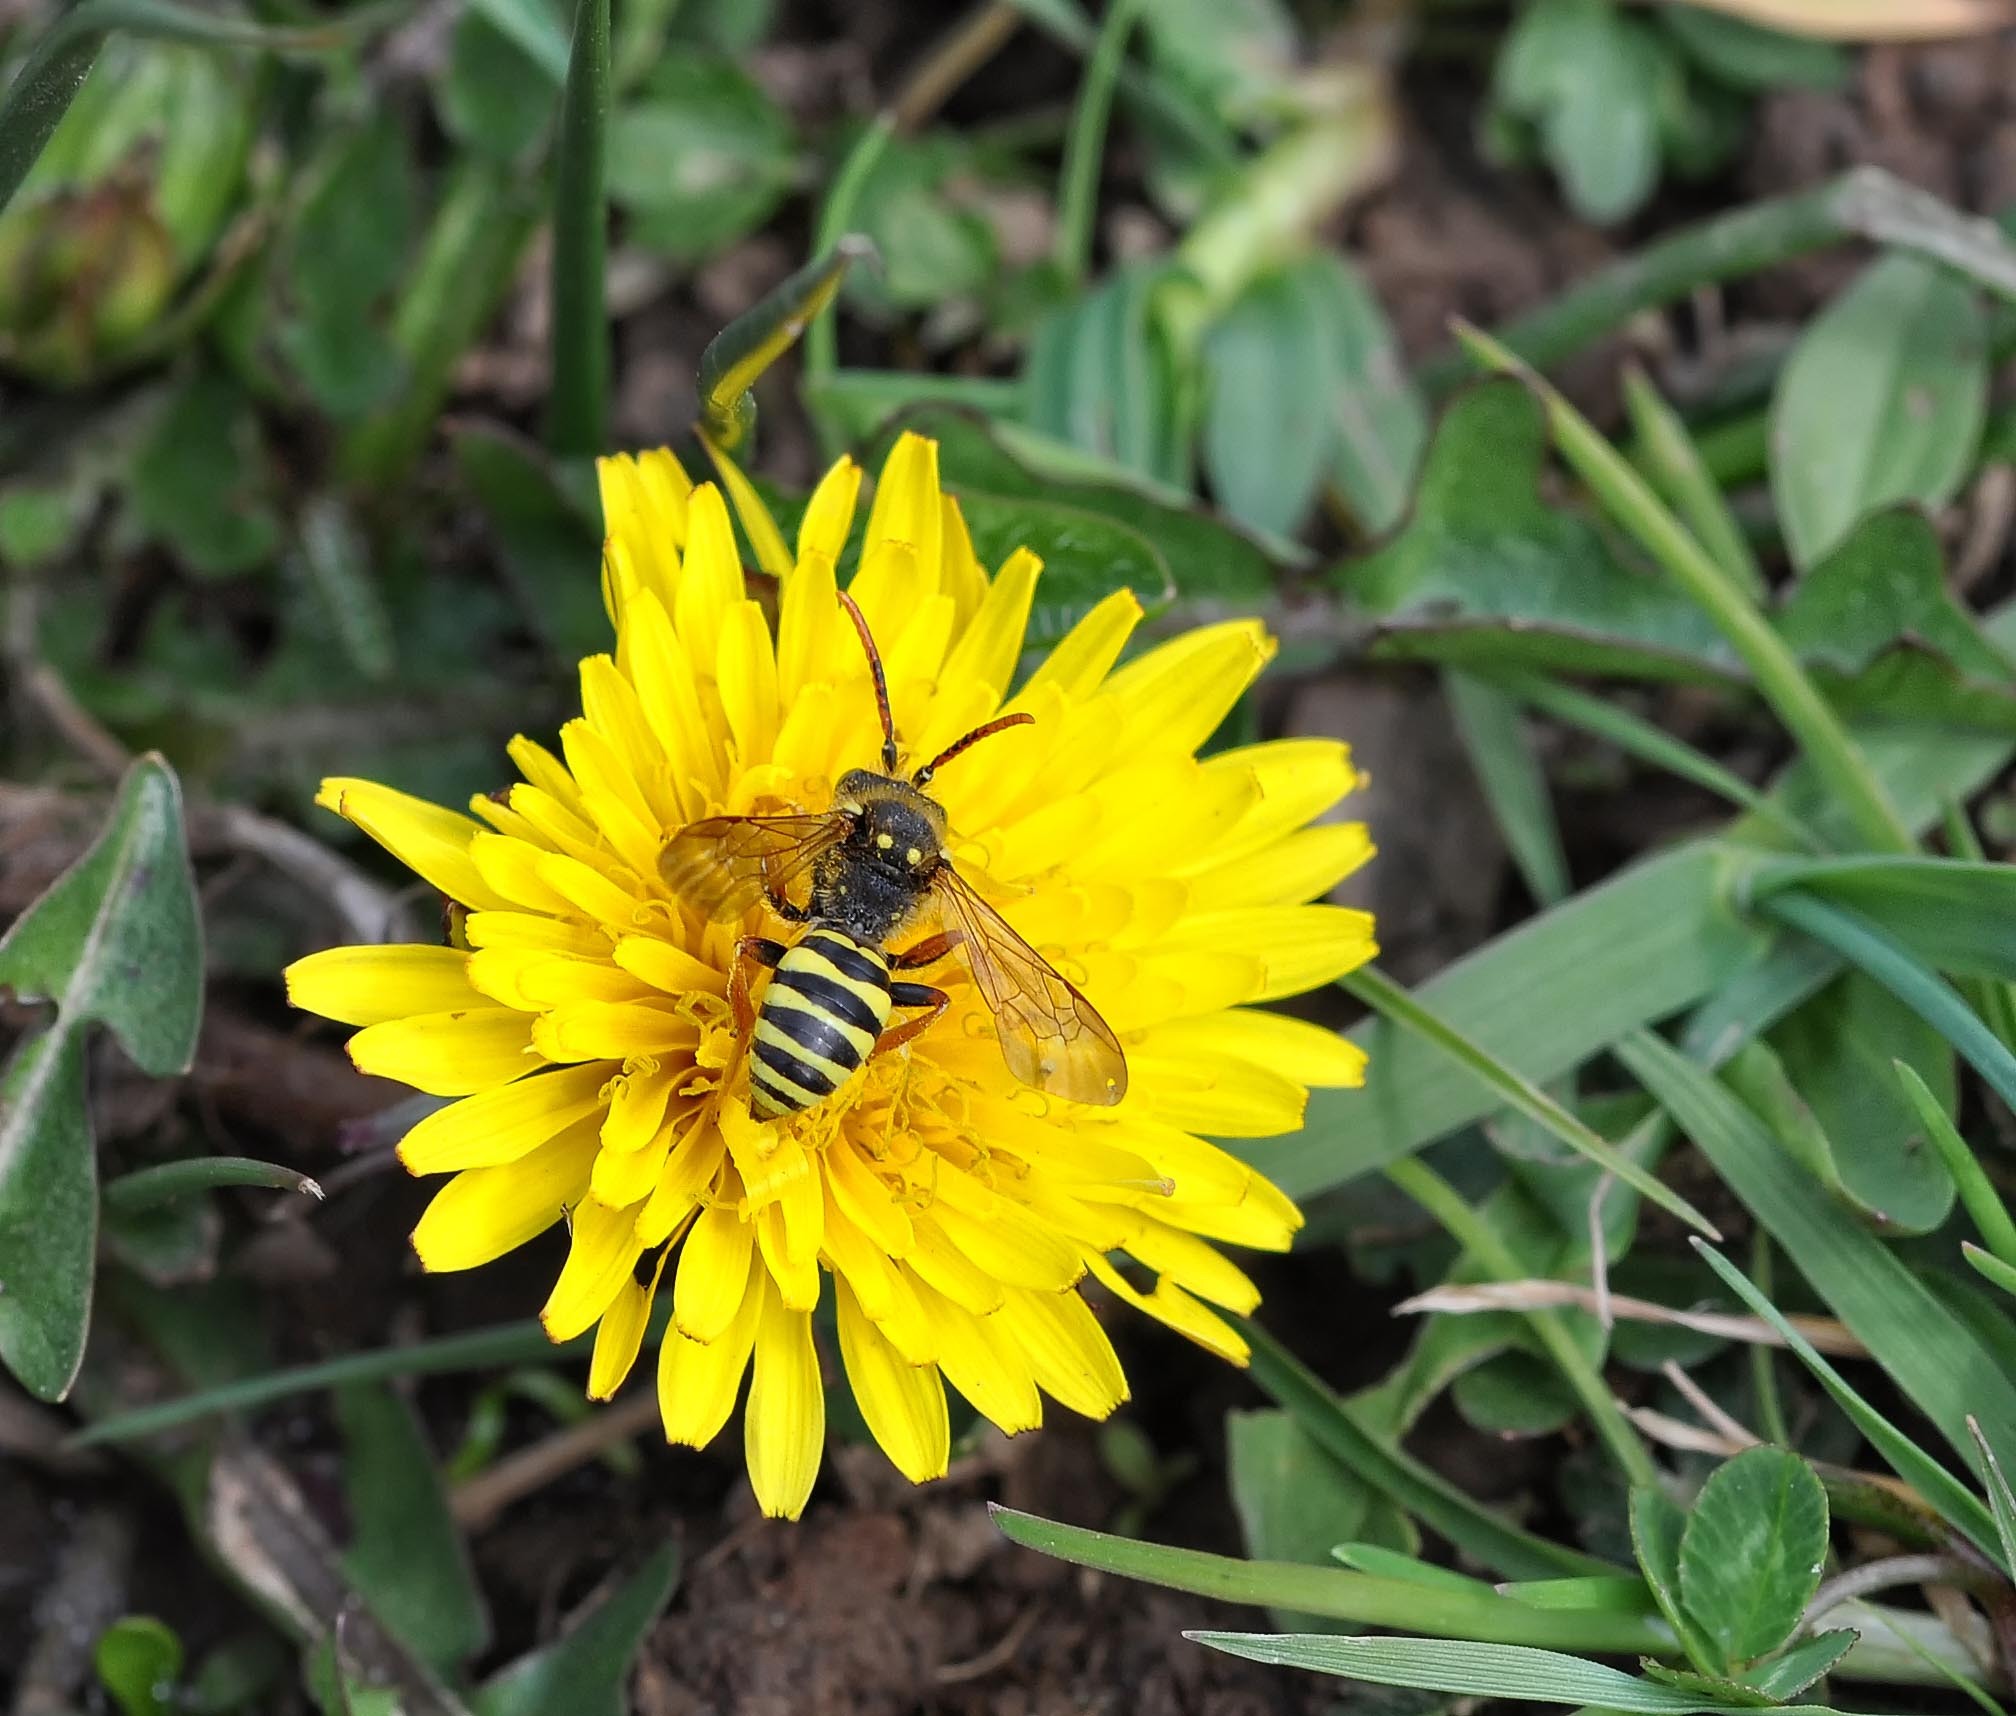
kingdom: Animalia
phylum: Arthropoda
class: Insecta
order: Hymenoptera
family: Apidae
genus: Nomada
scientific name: Nomada goodeniana
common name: Gooden's nomad bee
